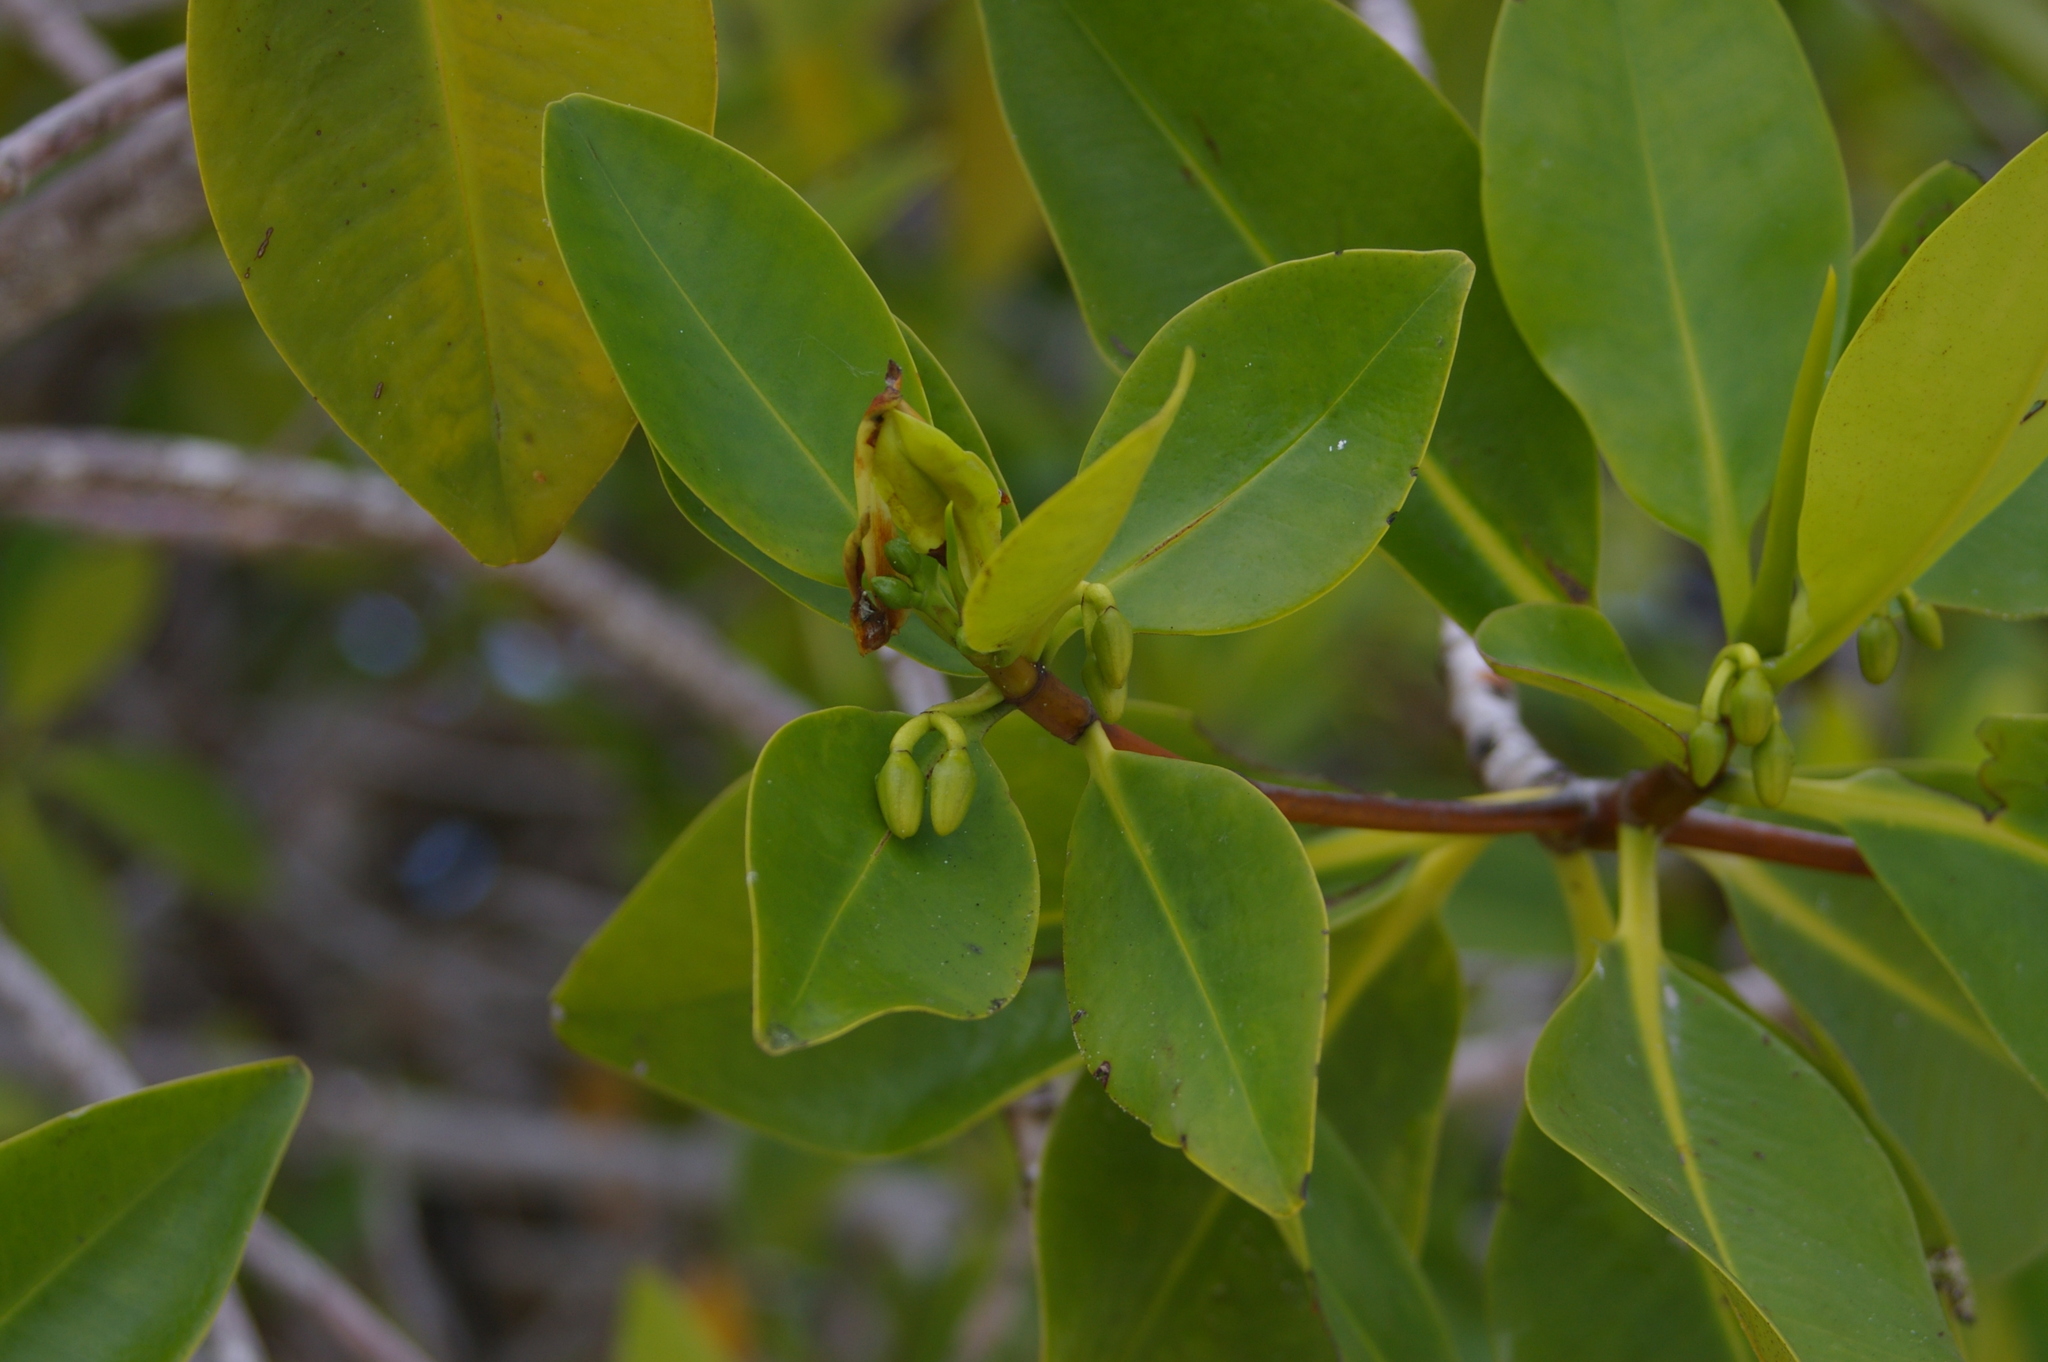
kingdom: Plantae
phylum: Tracheophyta
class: Magnoliopsida
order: Malpighiales
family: Rhizophoraceae
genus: Rhizophora
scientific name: Rhizophora mangle
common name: Red mangrove
